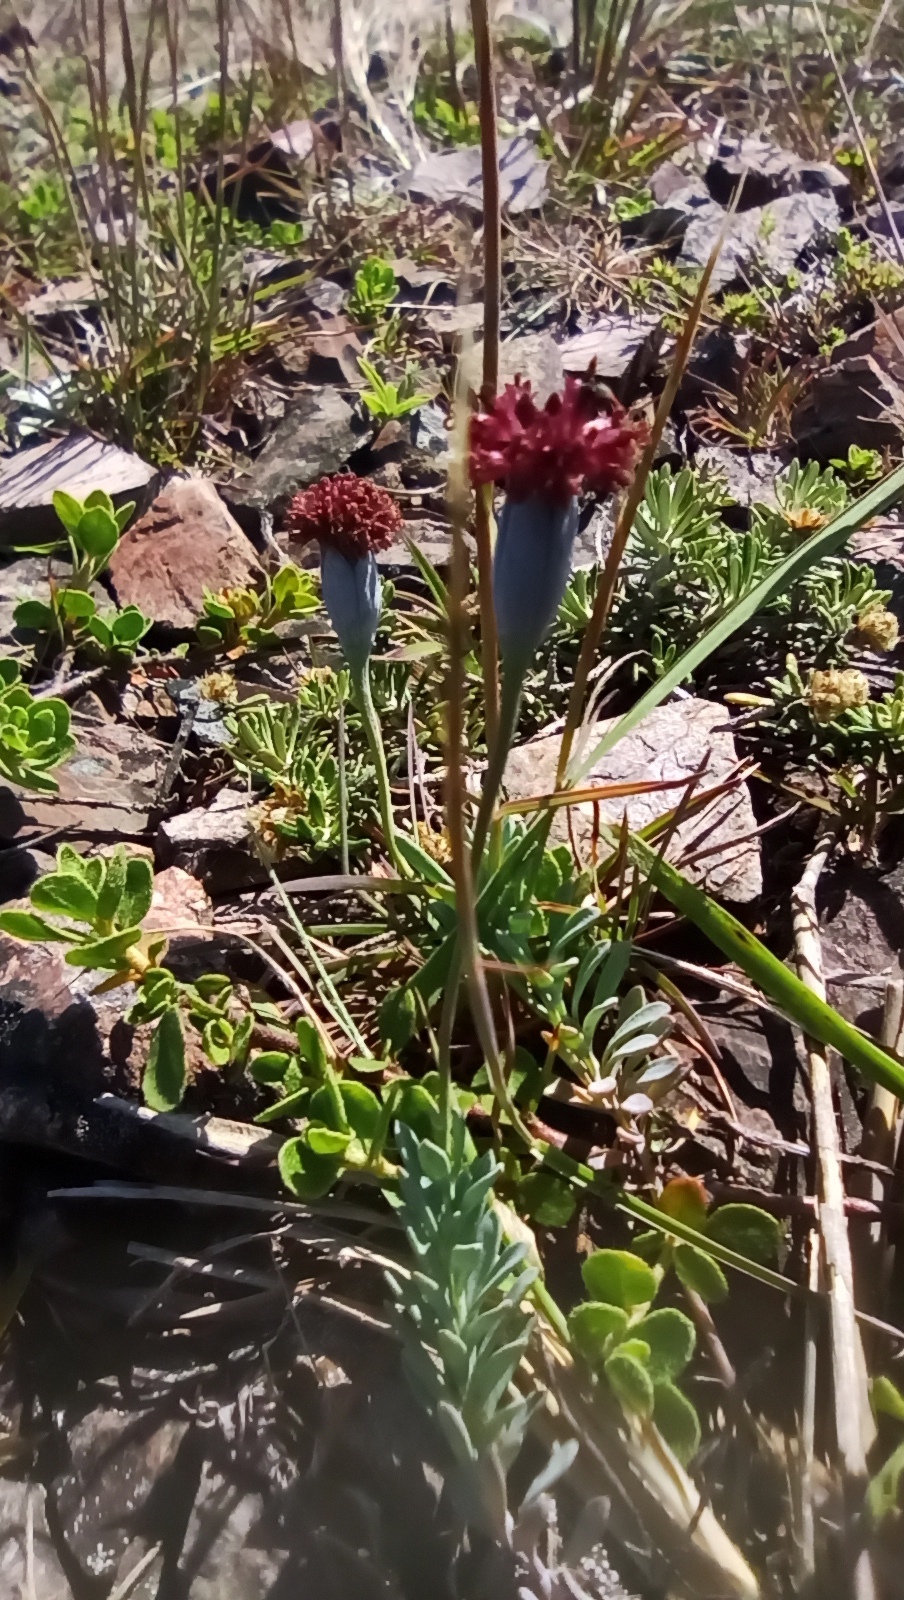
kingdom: Plantae
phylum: Tracheophyta
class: Magnoliopsida
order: Asterales
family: Asteraceae
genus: Porophyllum
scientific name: Porophyllum linifolium
